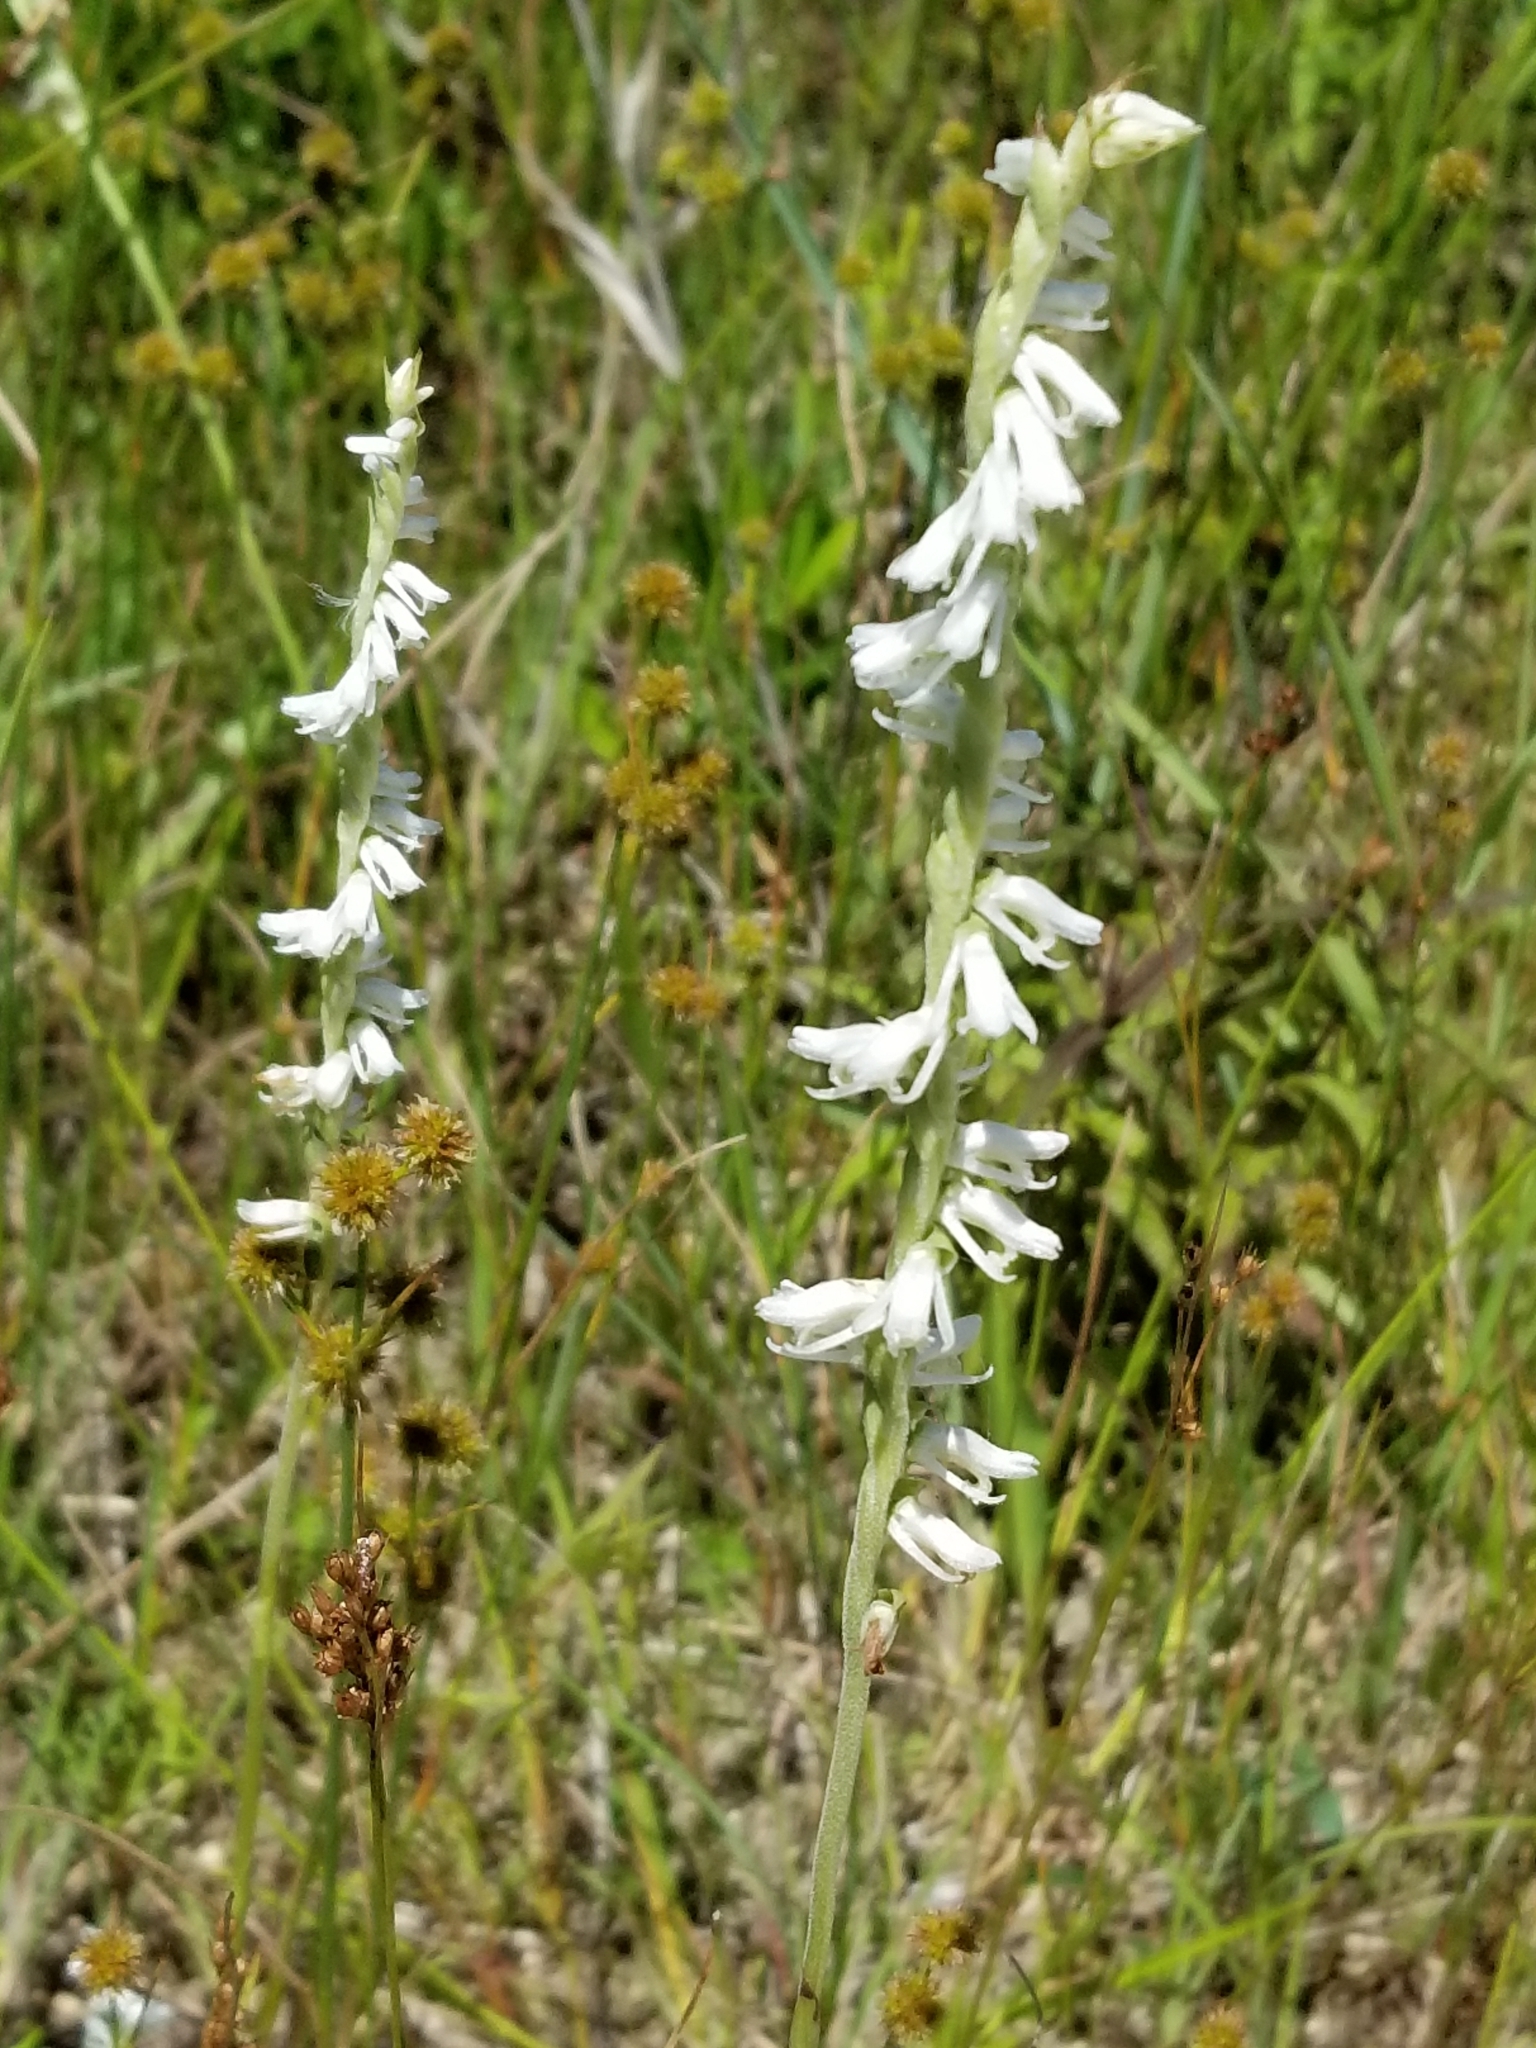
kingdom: Plantae
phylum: Tracheophyta
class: Liliopsida
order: Asparagales
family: Orchidaceae
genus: Spiranthes
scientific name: Spiranthes vernalis
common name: Spring ladies'-tresses
